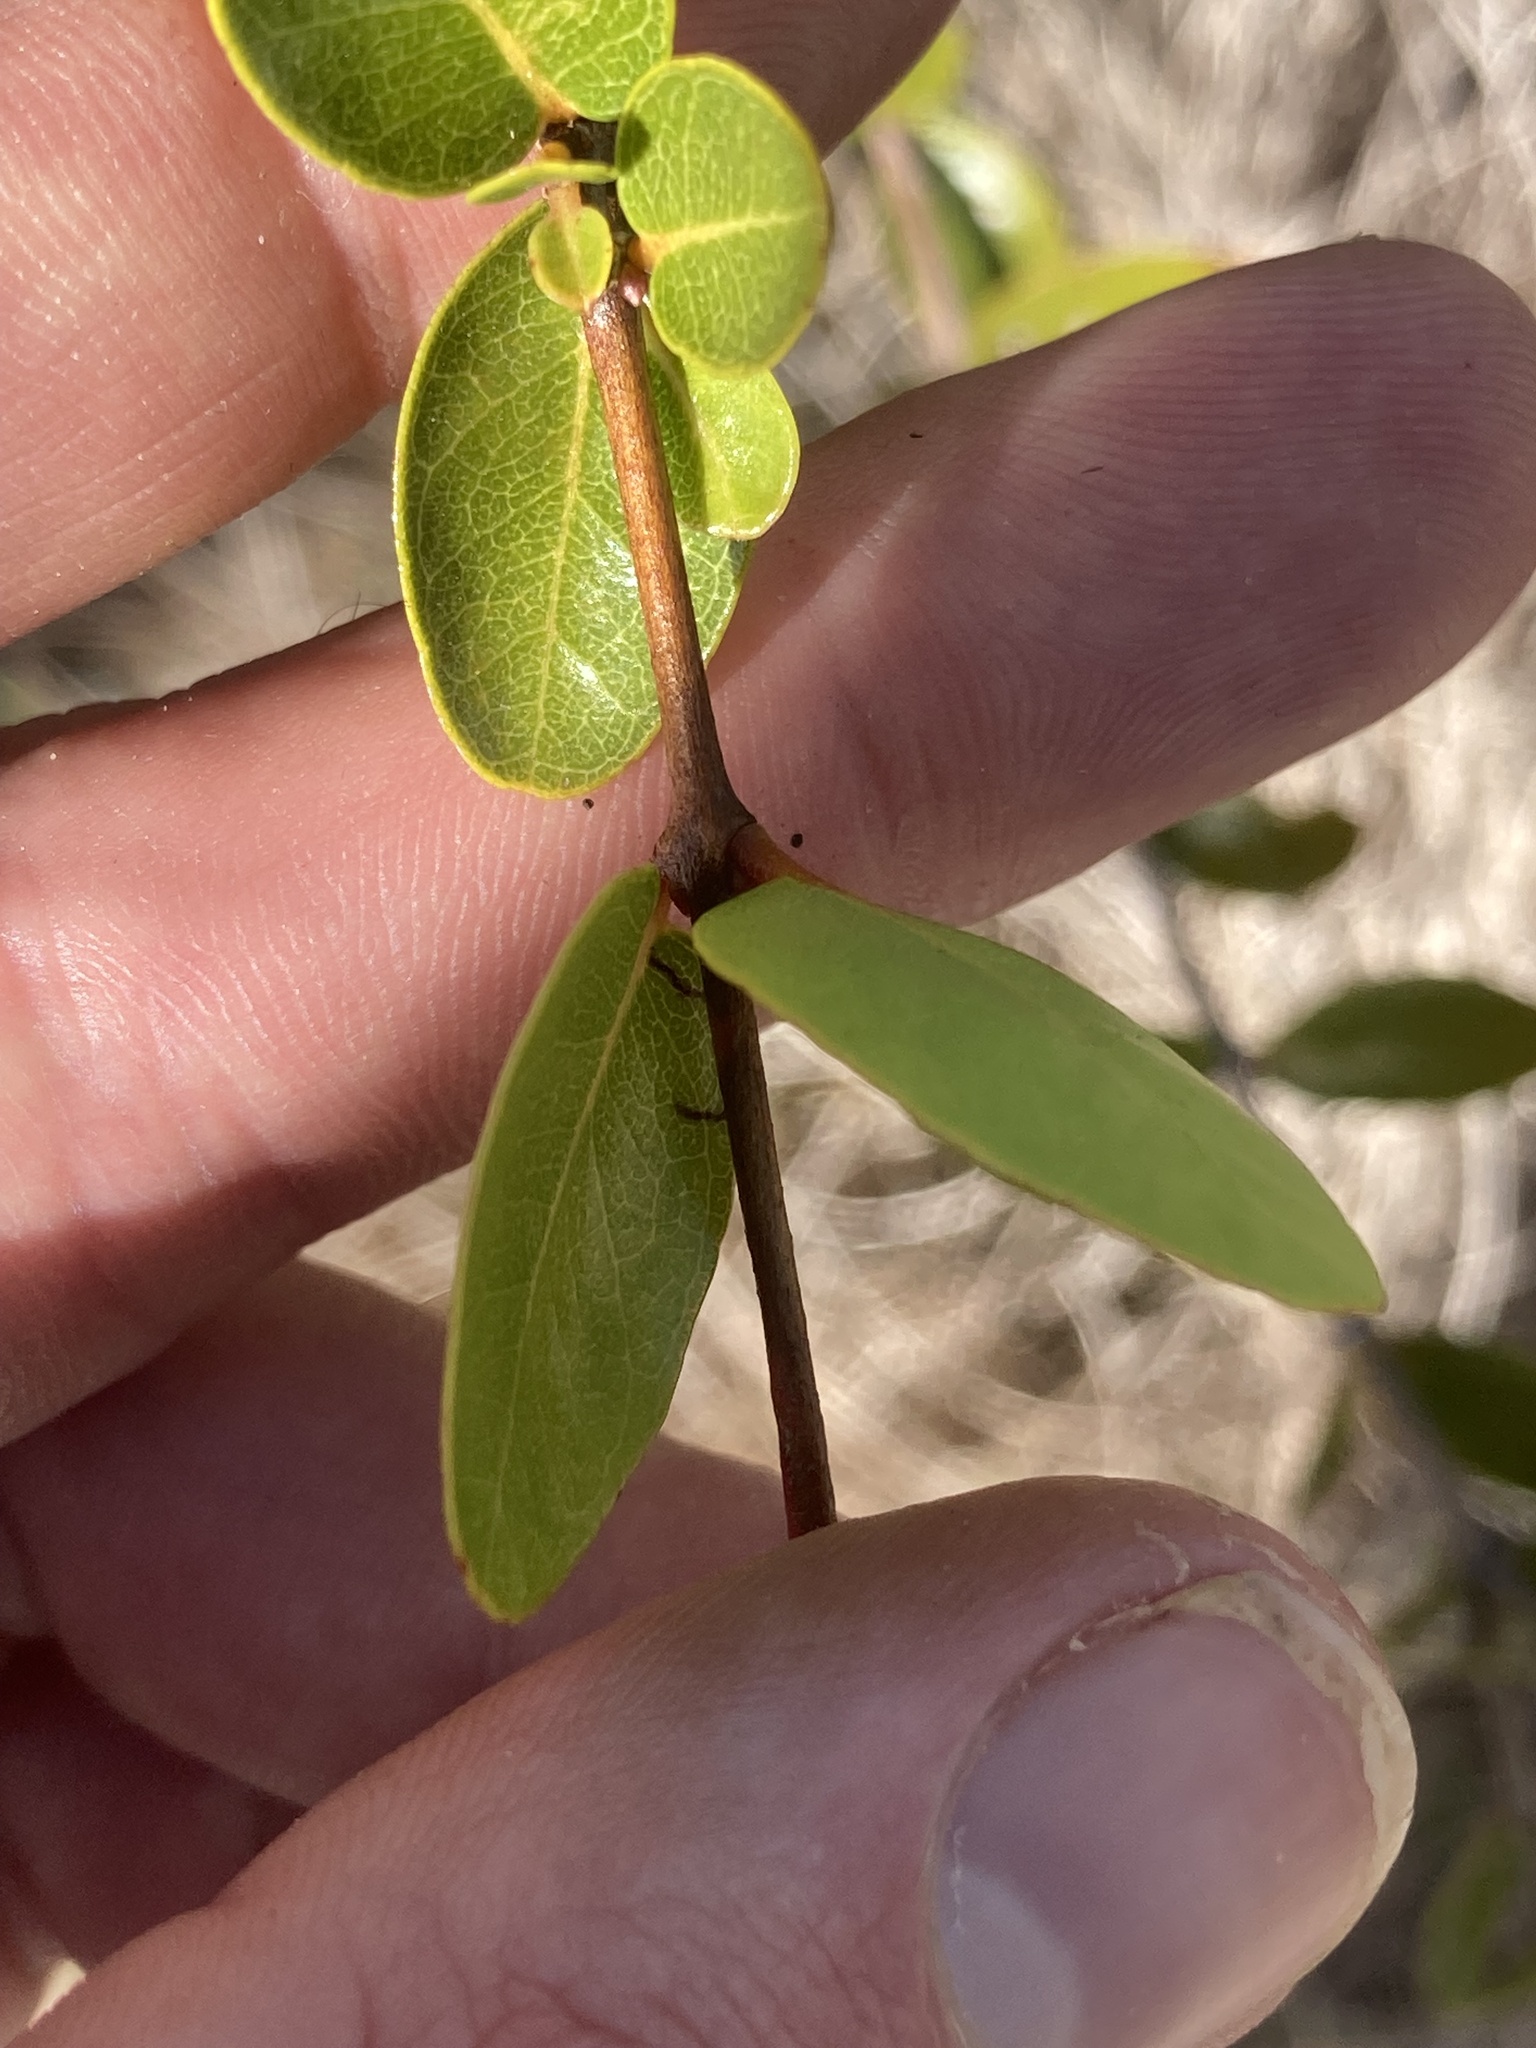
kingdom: Plantae
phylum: Tracheophyta
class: Magnoliopsida
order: Myrtales
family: Myrtaceae
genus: Mosiera
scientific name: Mosiera longipes
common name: Bahama stopper
